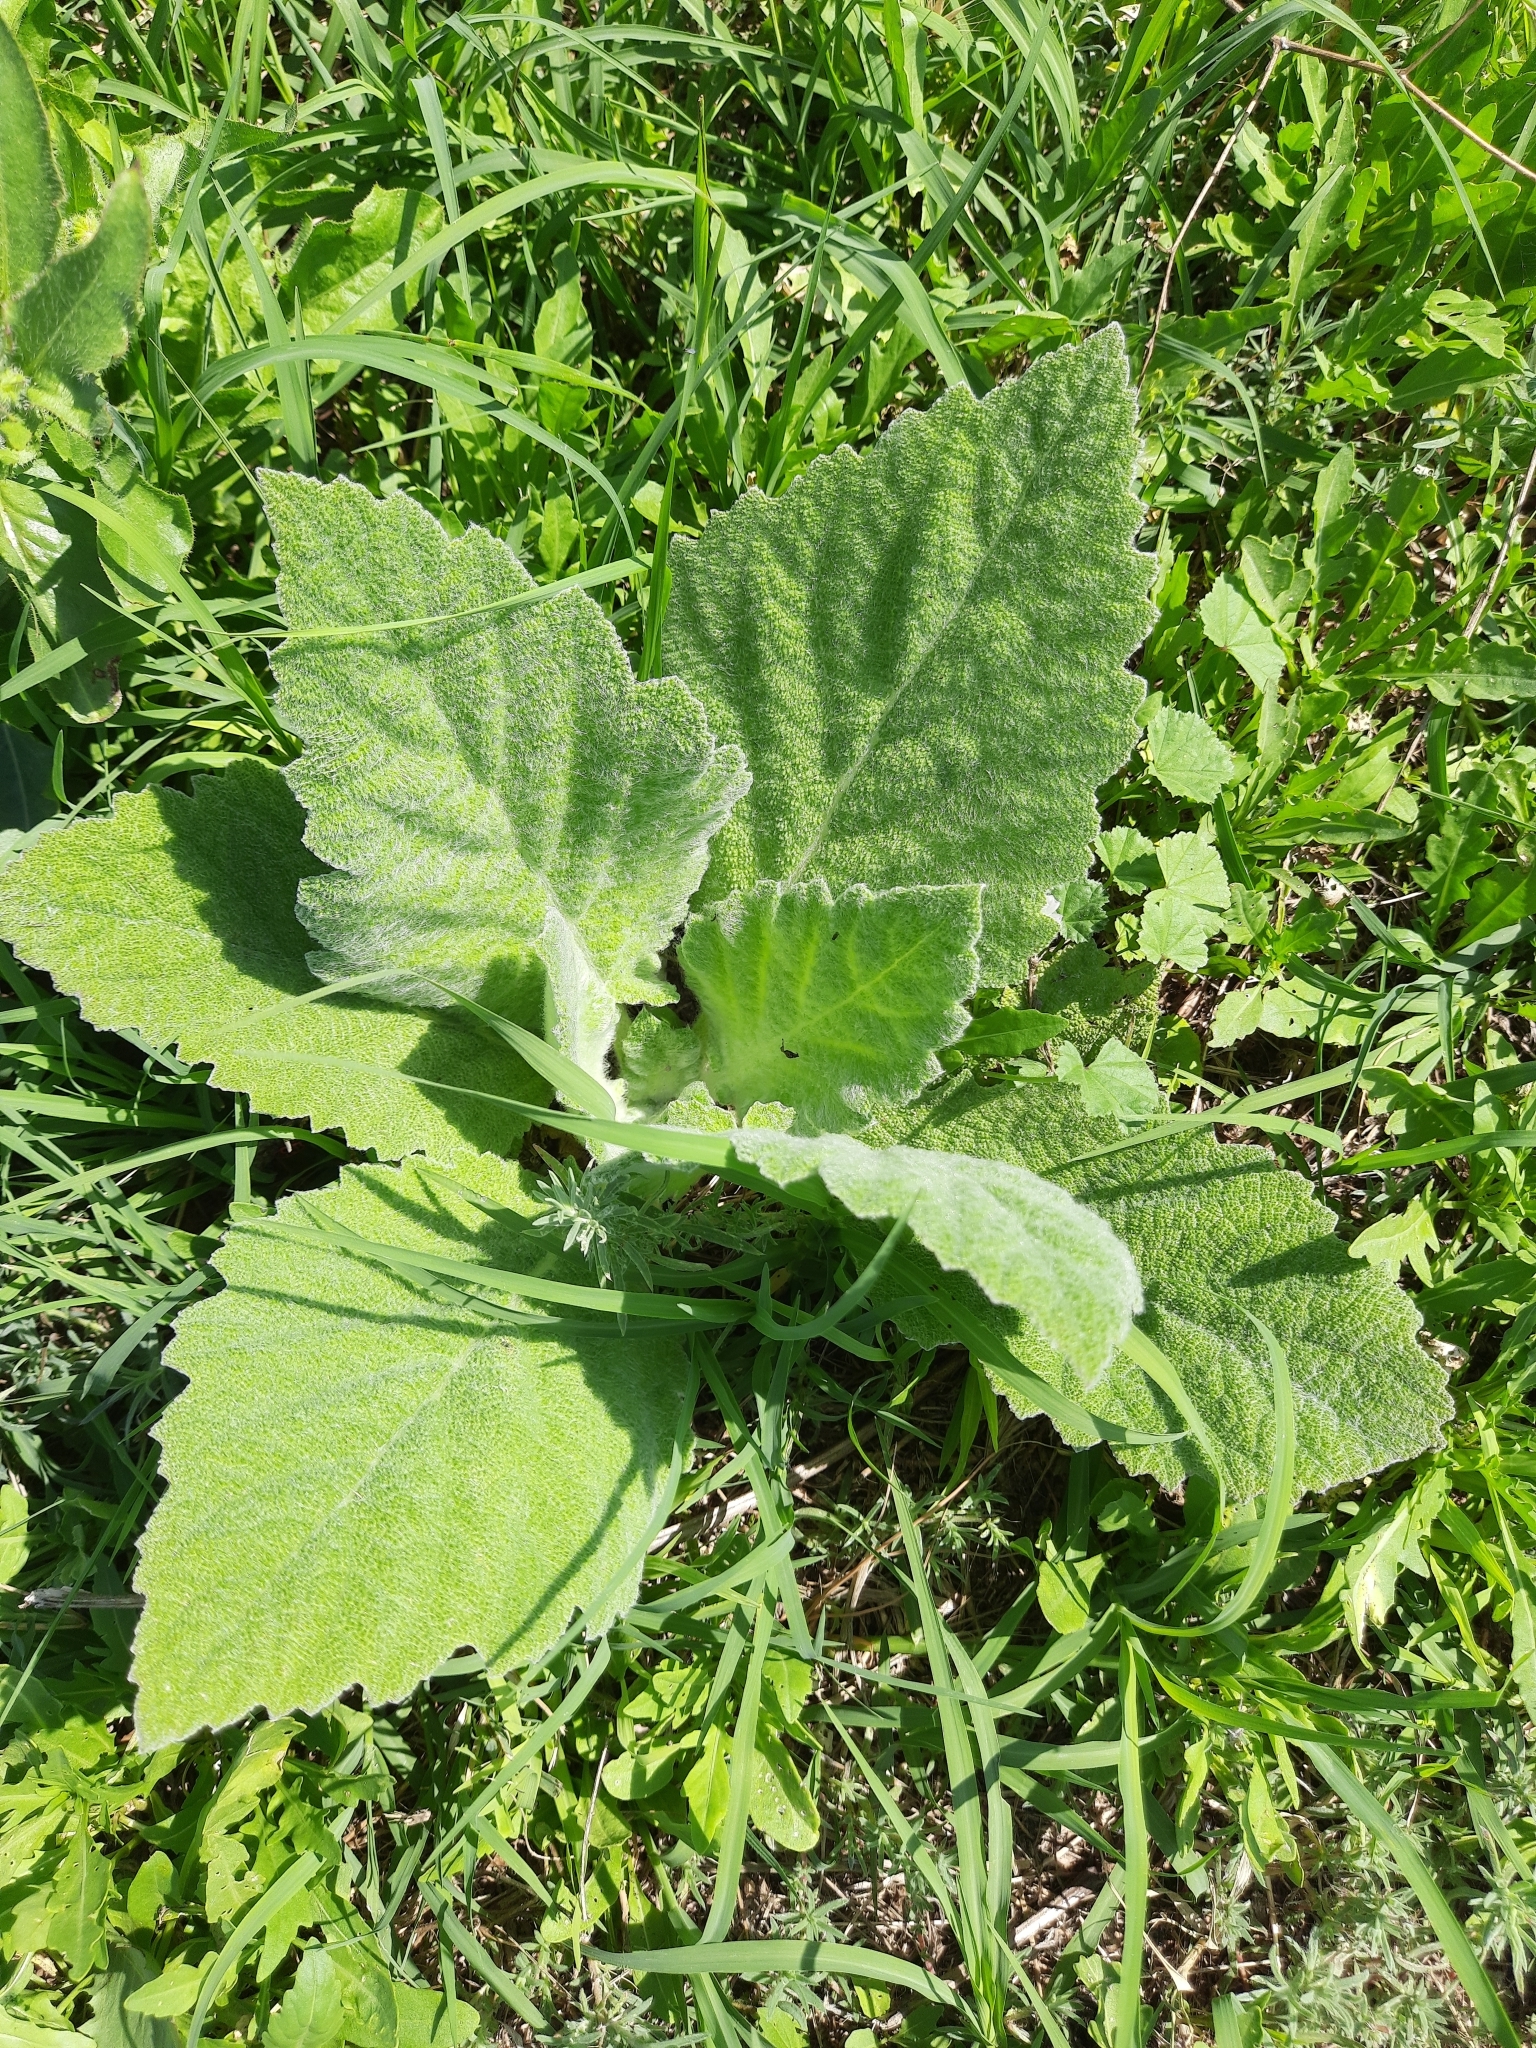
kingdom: Plantae
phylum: Tracheophyta
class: Magnoliopsida
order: Lamiales
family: Lamiaceae
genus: Salvia
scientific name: Salvia aethiopis
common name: Mediterranean sage
